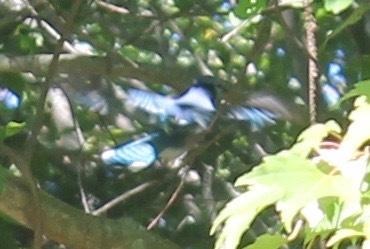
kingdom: Animalia
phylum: Chordata
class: Aves
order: Passeriformes
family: Corvidae
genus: Cyanocitta
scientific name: Cyanocitta cristata
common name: Blue jay
